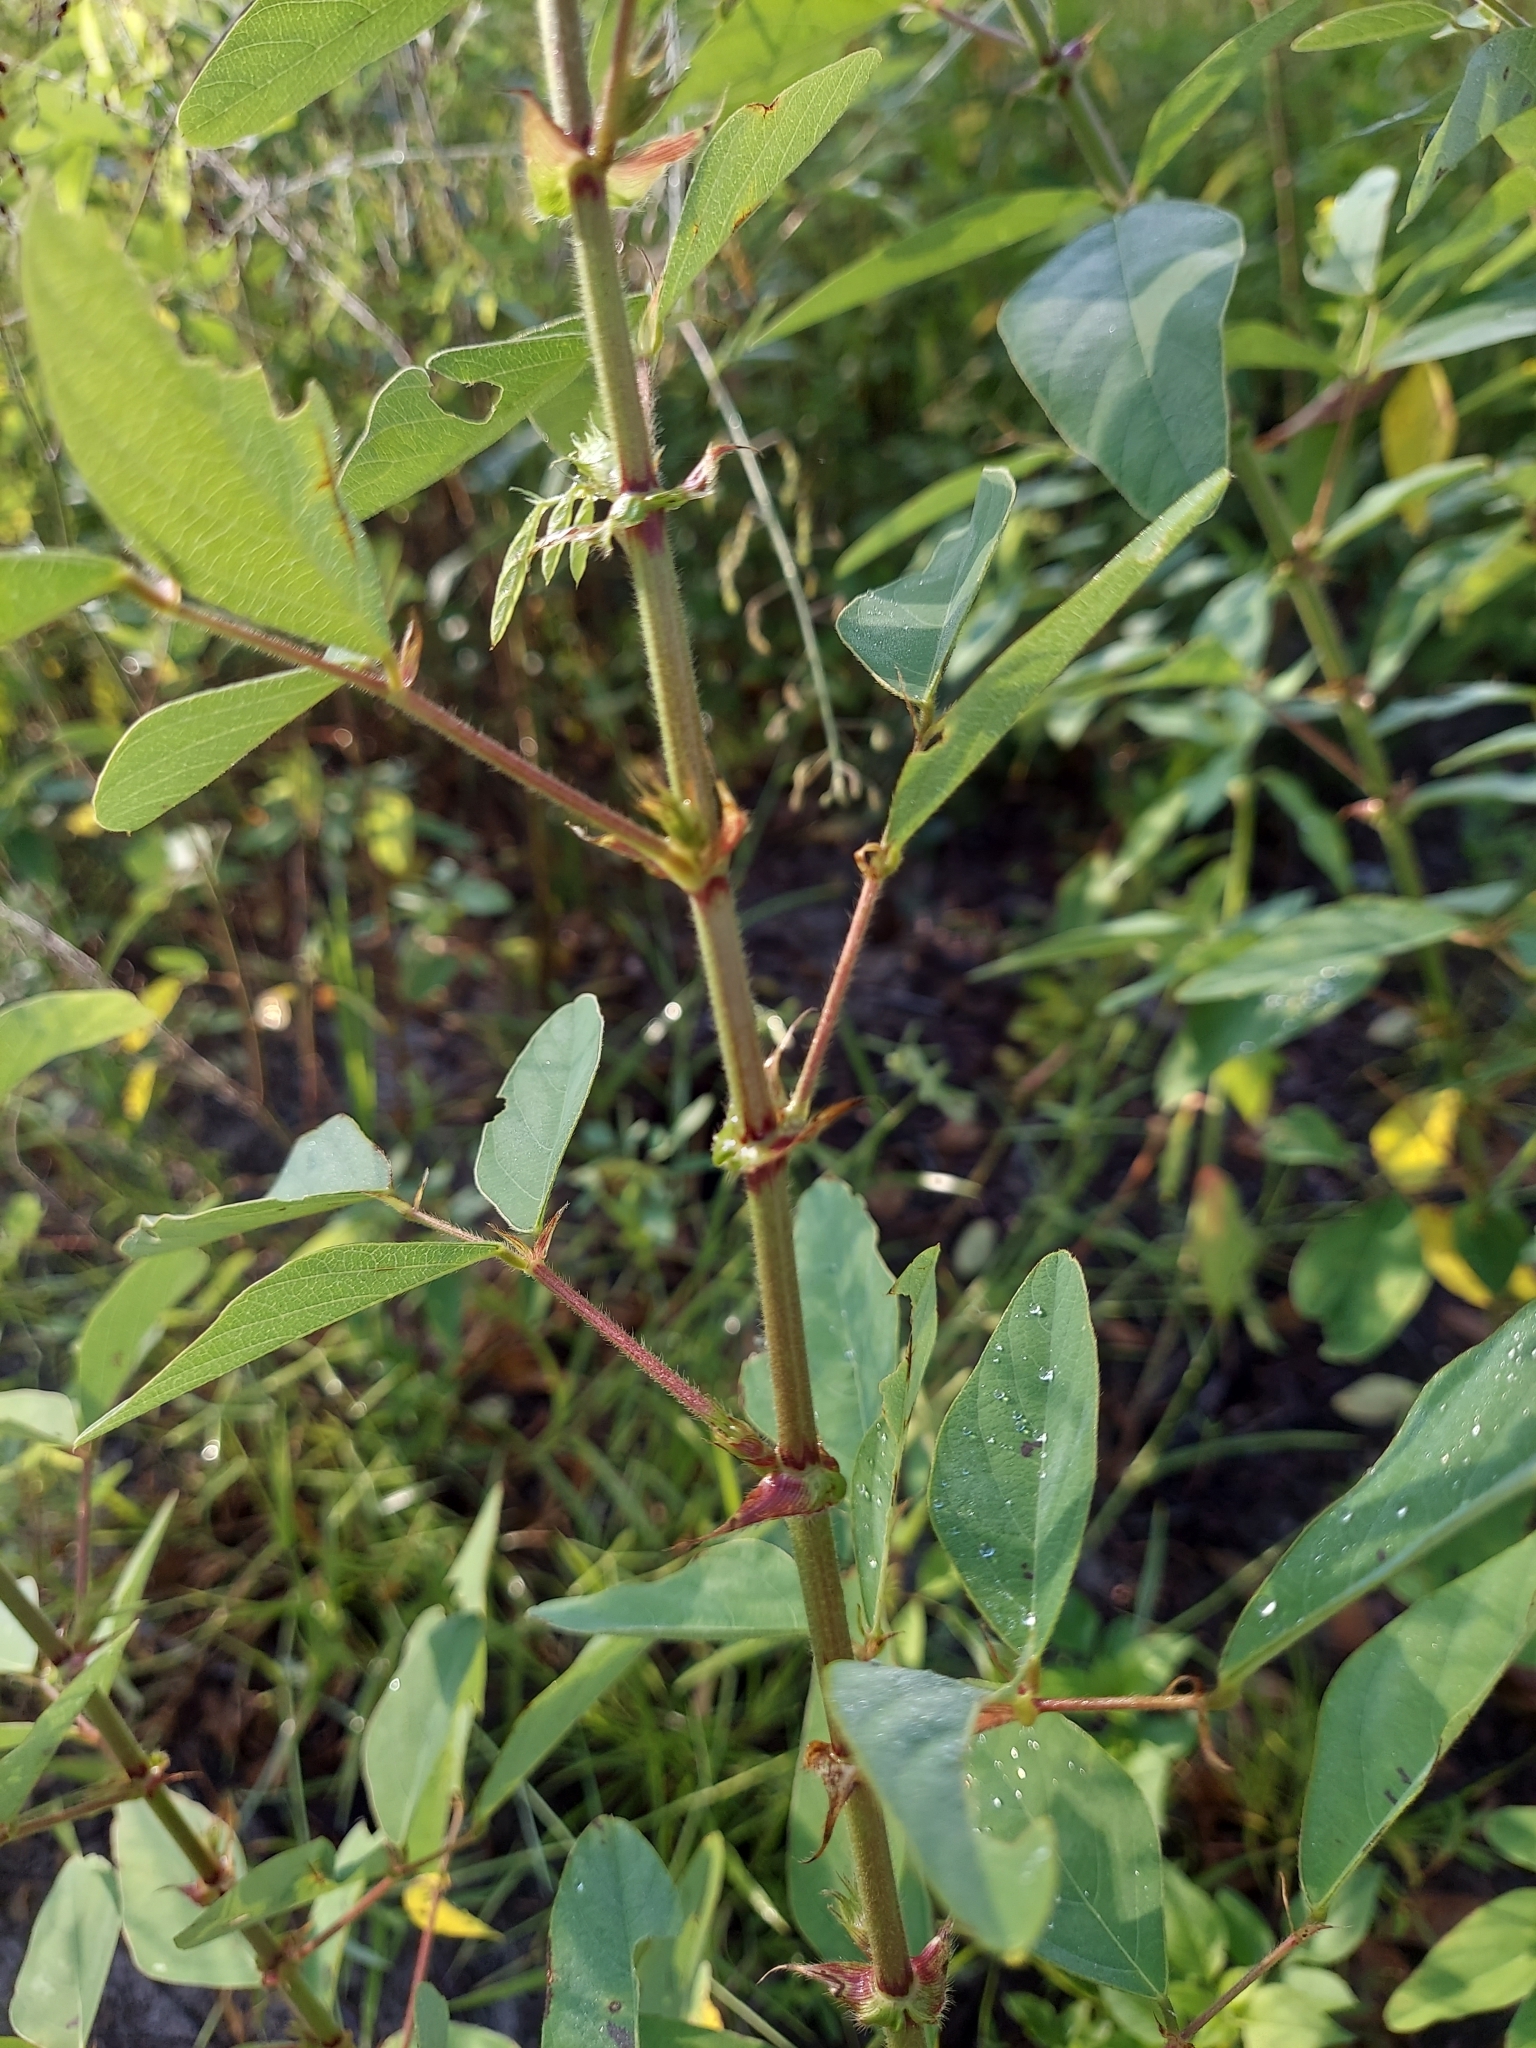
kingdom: Plantae
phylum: Tracheophyta
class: Magnoliopsida
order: Fabales
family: Fabaceae
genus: Desmodium
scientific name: Desmodium tortuosum
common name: Dixie ticktrefoil
